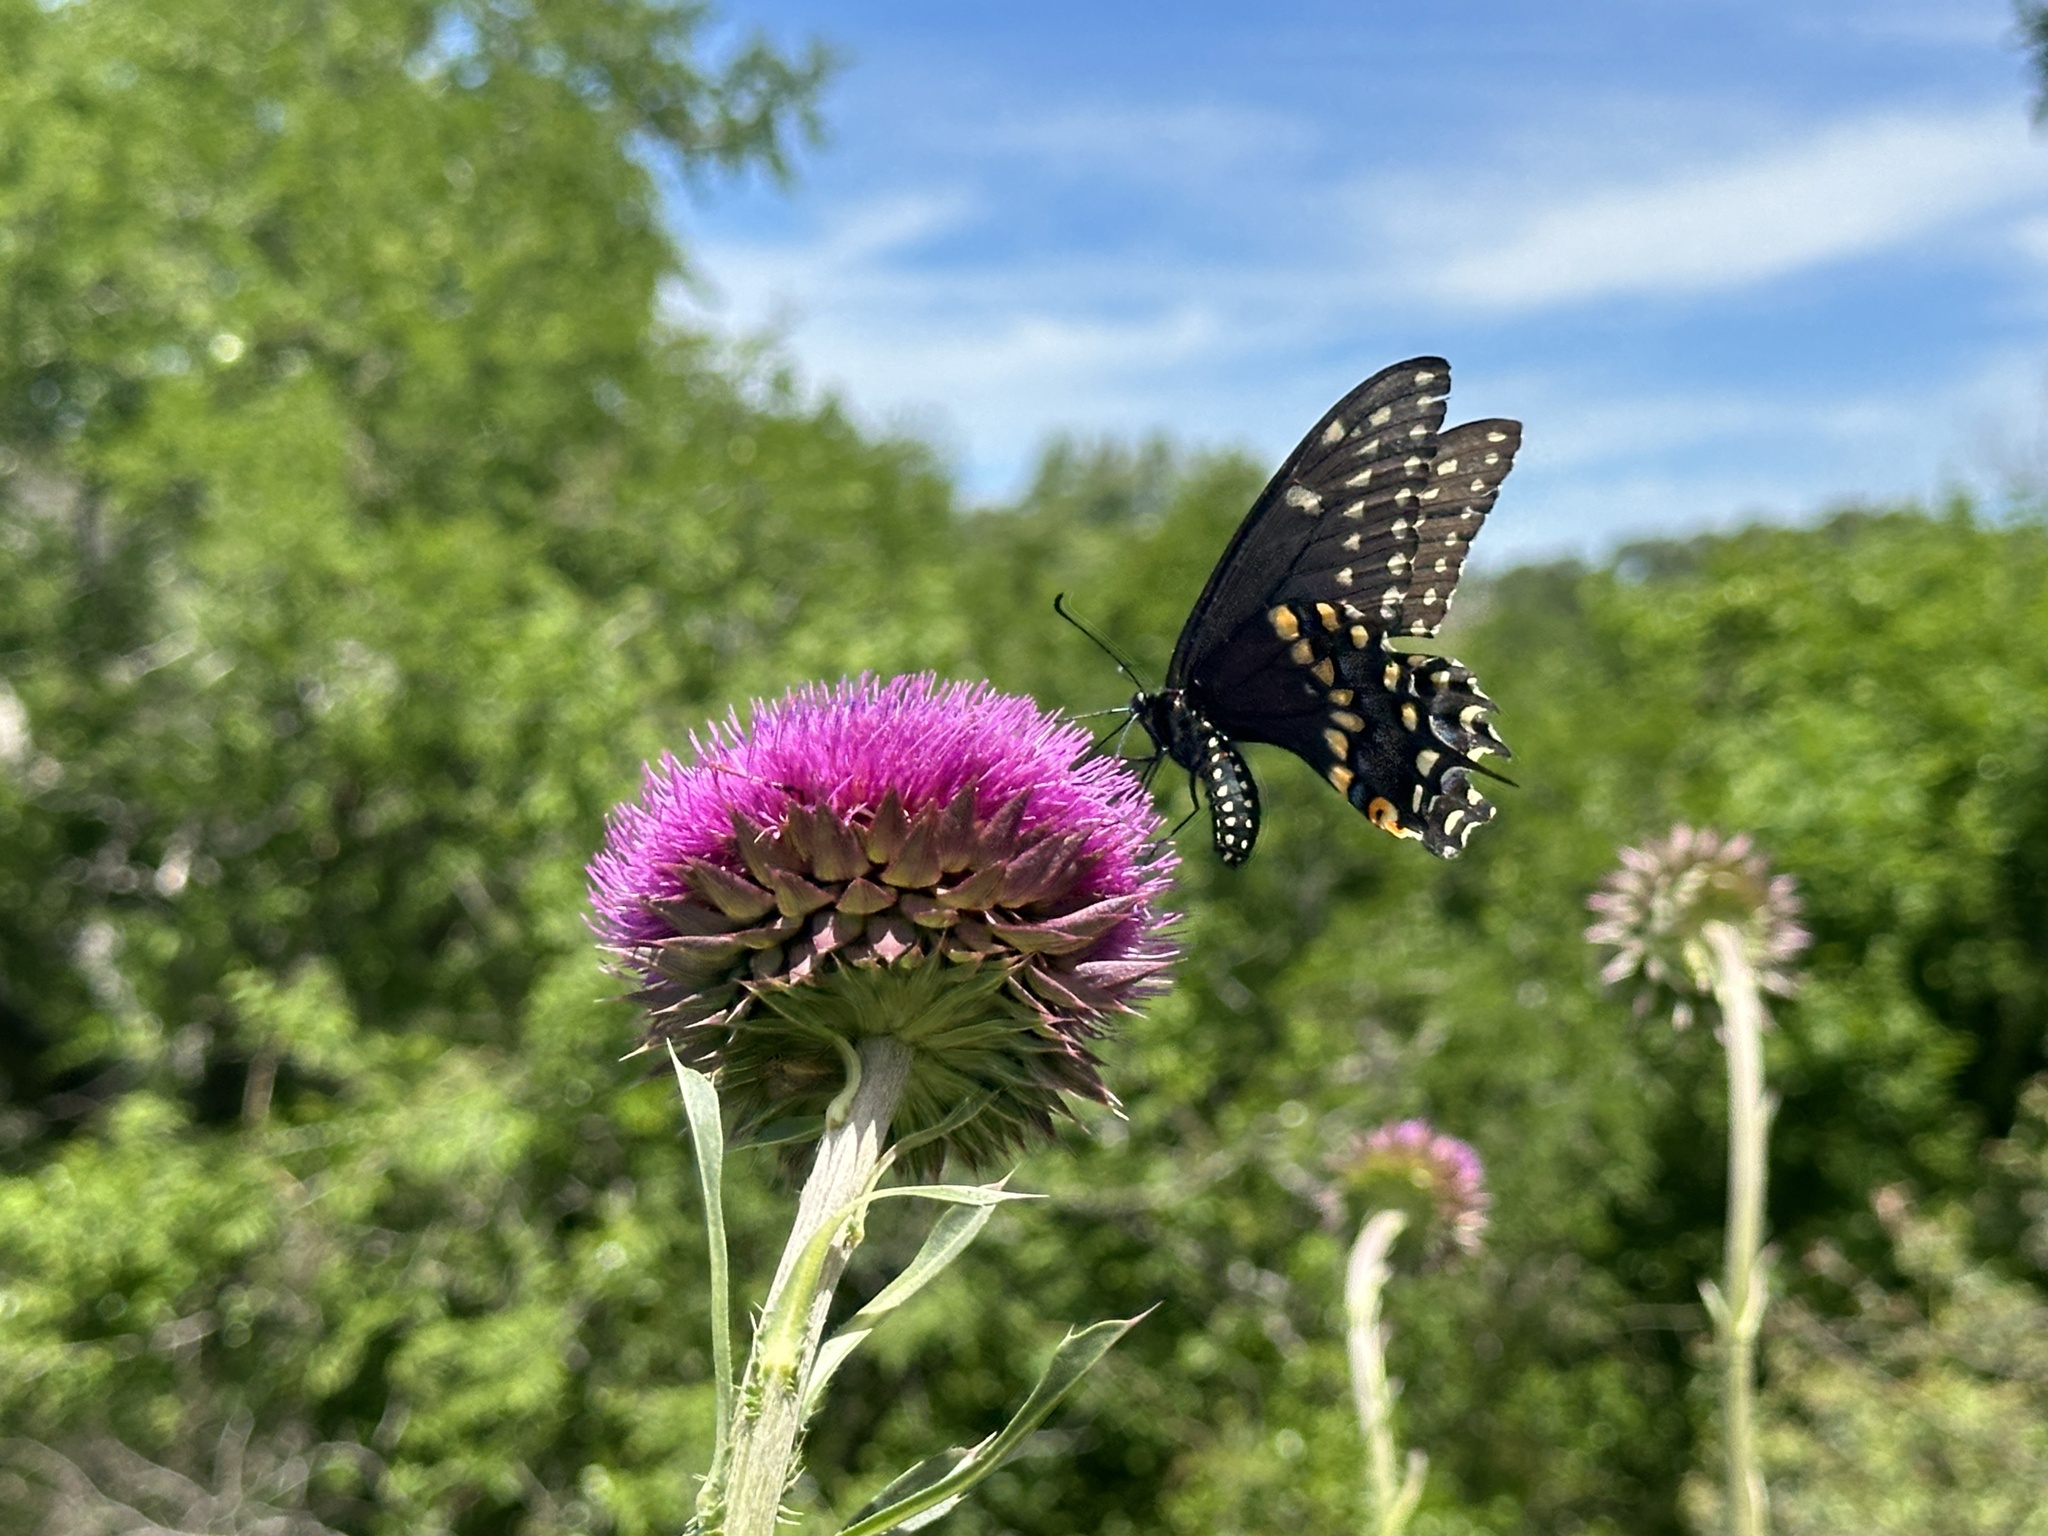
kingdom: Animalia
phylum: Arthropoda
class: Insecta
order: Lepidoptera
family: Papilionidae
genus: Papilio
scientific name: Papilio polyxenes
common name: Black swallowtail
